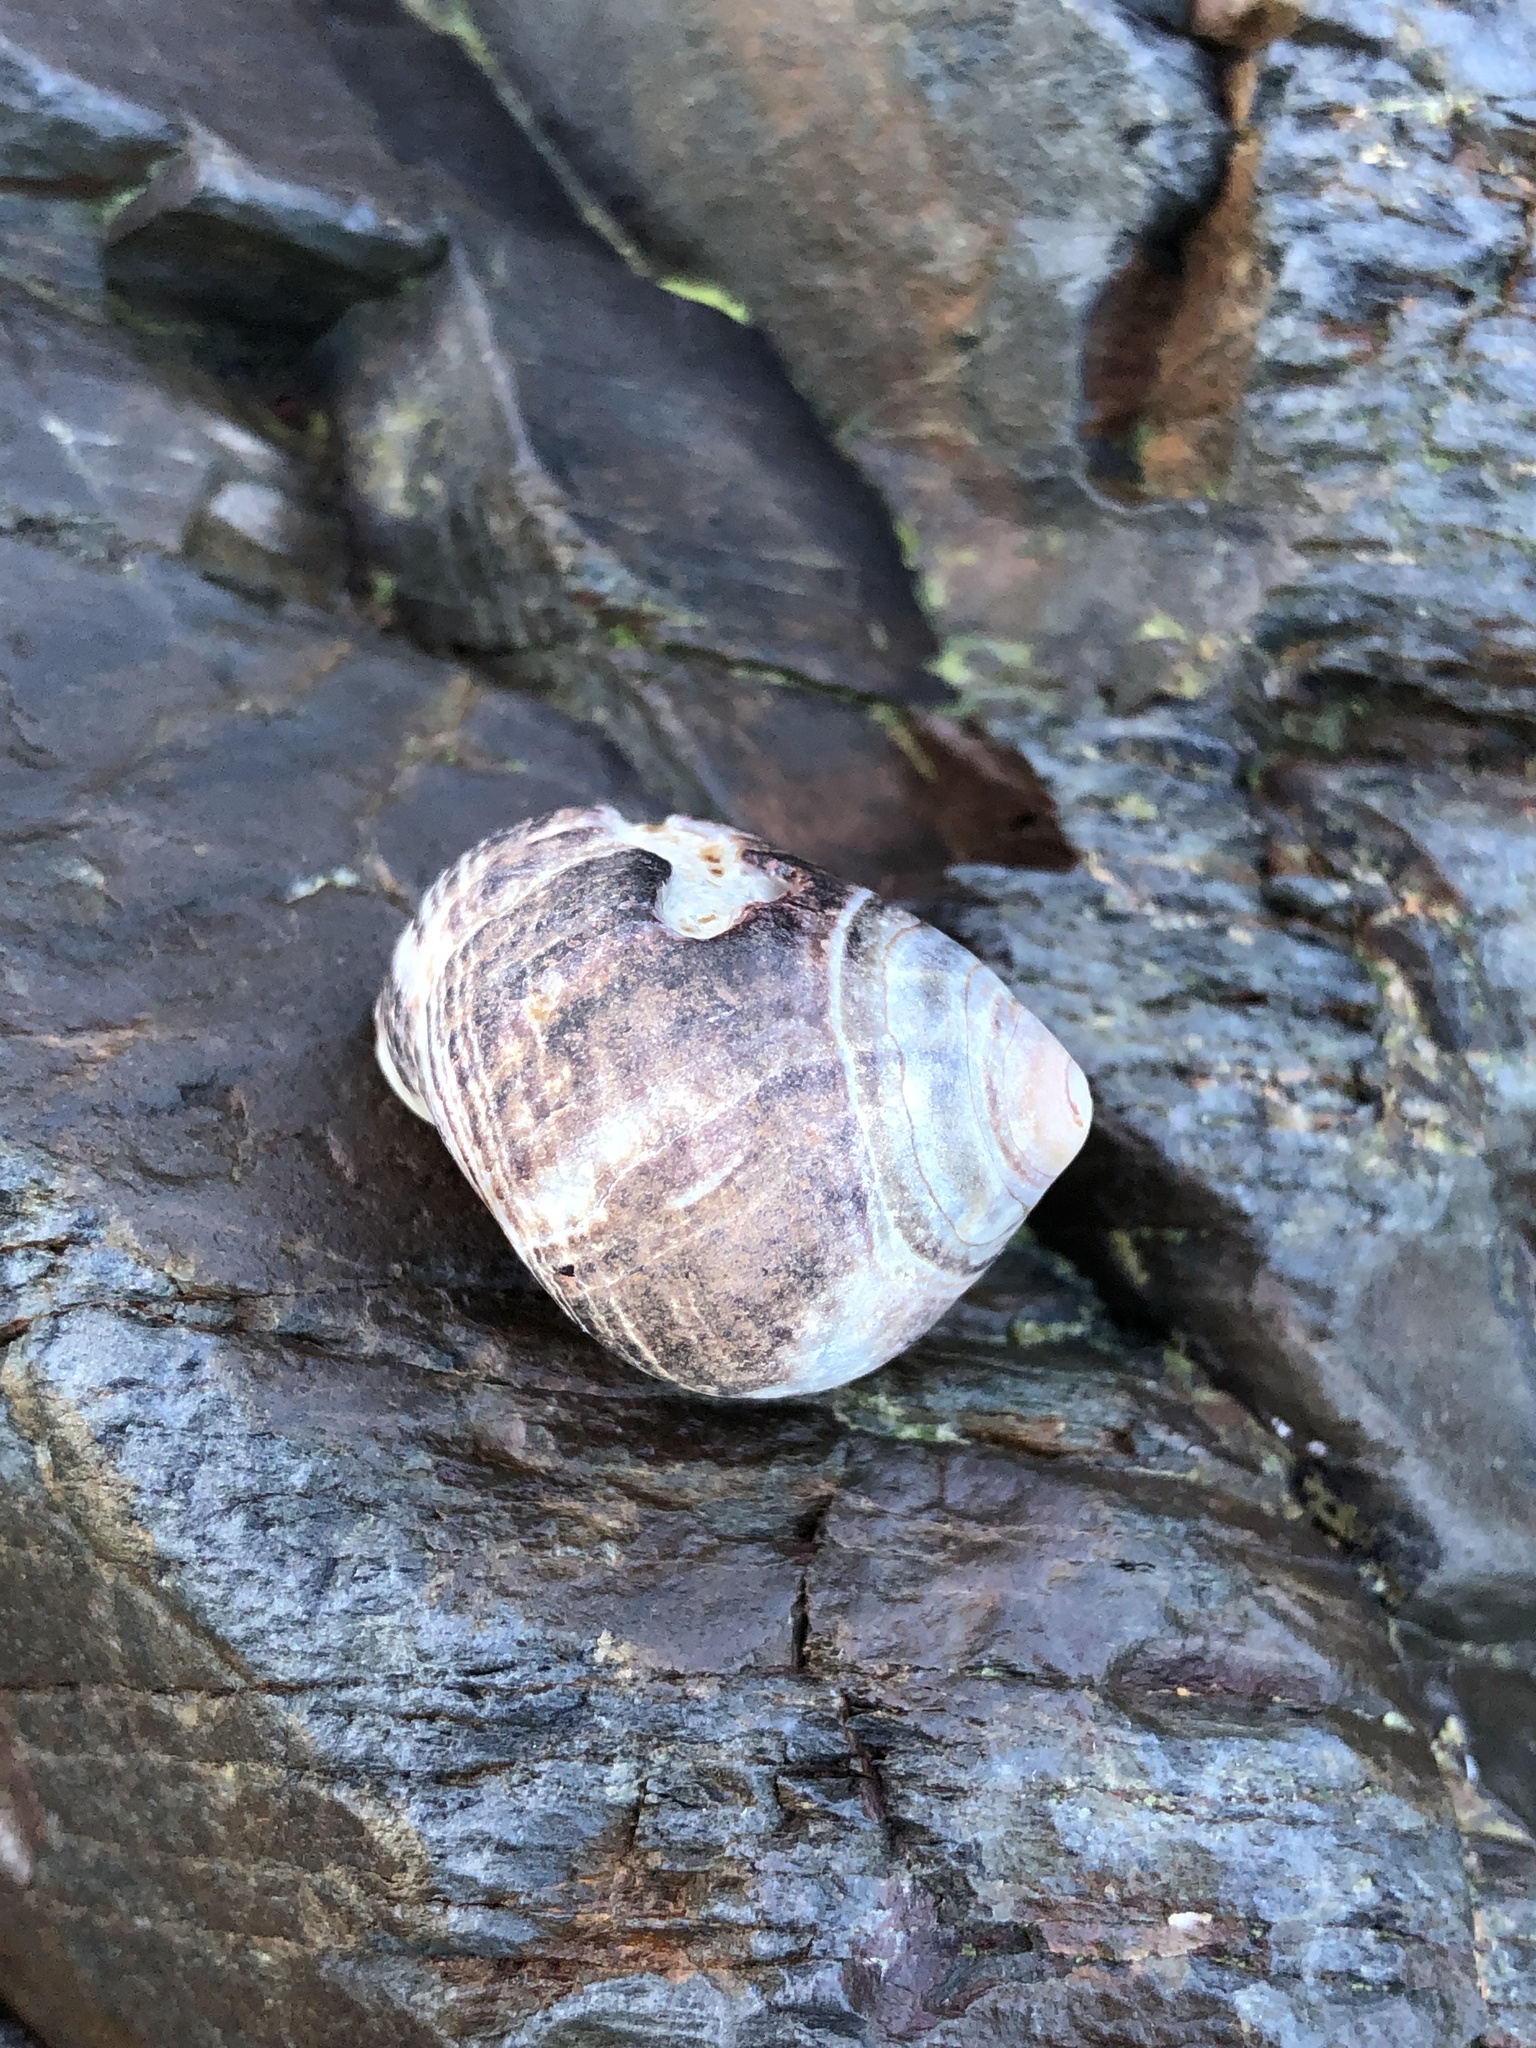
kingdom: Animalia
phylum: Mollusca
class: Gastropoda
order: Littorinimorpha
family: Littorinidae
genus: Littorina
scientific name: Littorina littorea
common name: Common periwinkle
